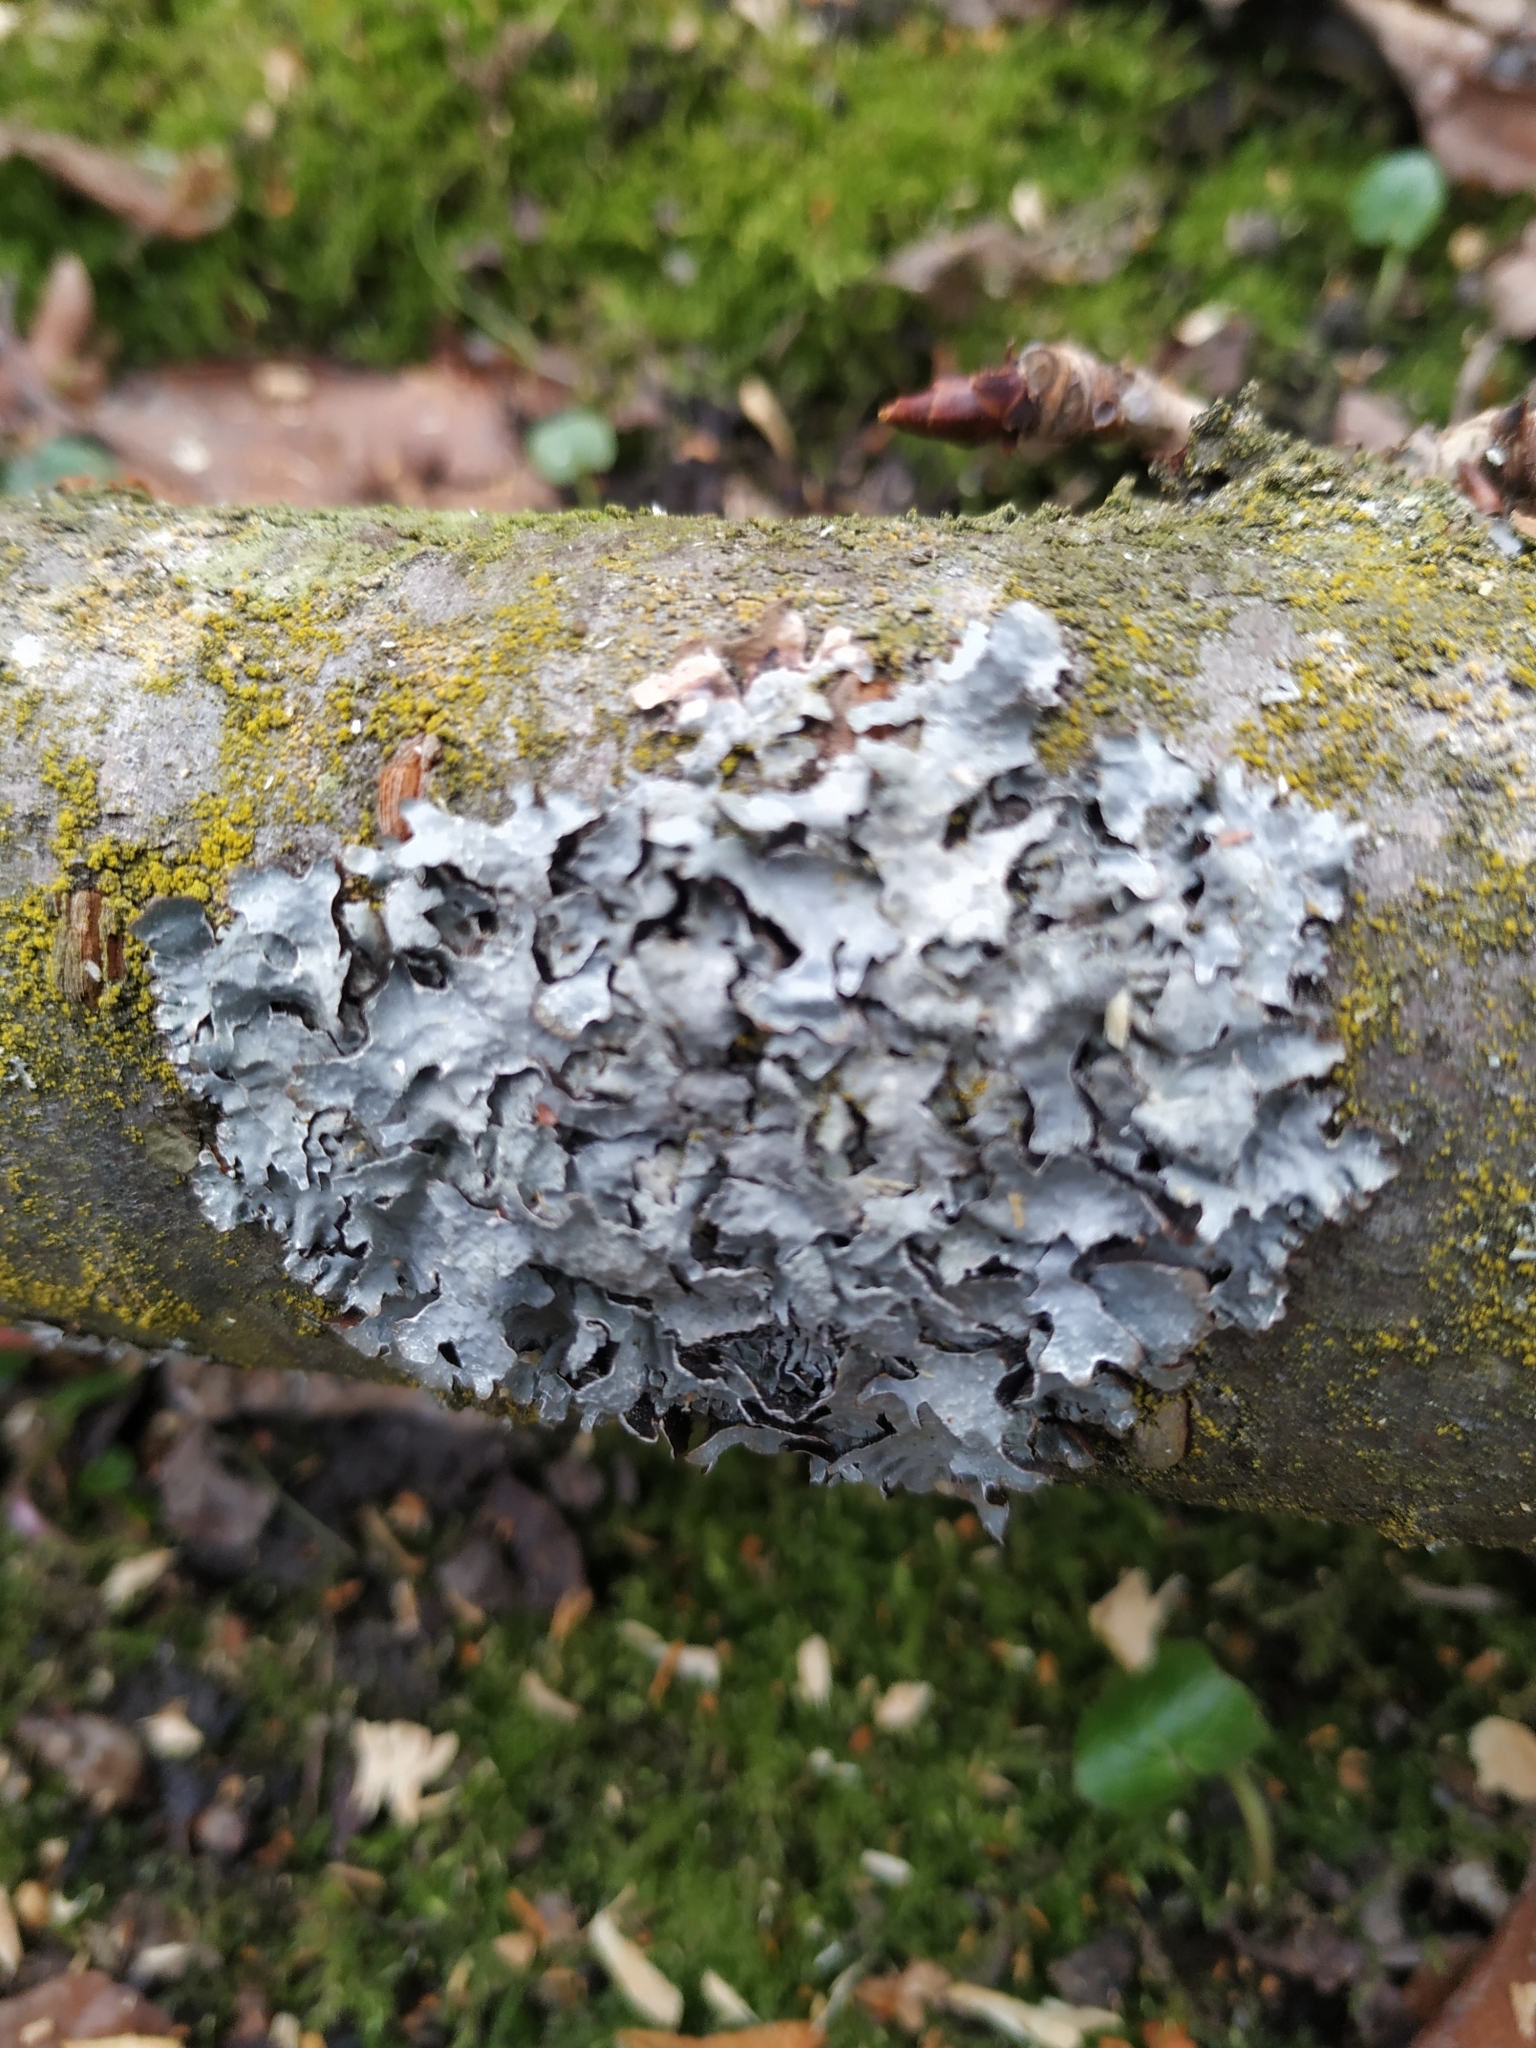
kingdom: Fungi
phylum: Ascomycota
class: Lecanoromycetes
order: Lecanorales
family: Parmeliaceae
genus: Parmelia
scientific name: Parmelia sulcata
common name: Netted shield lichen
